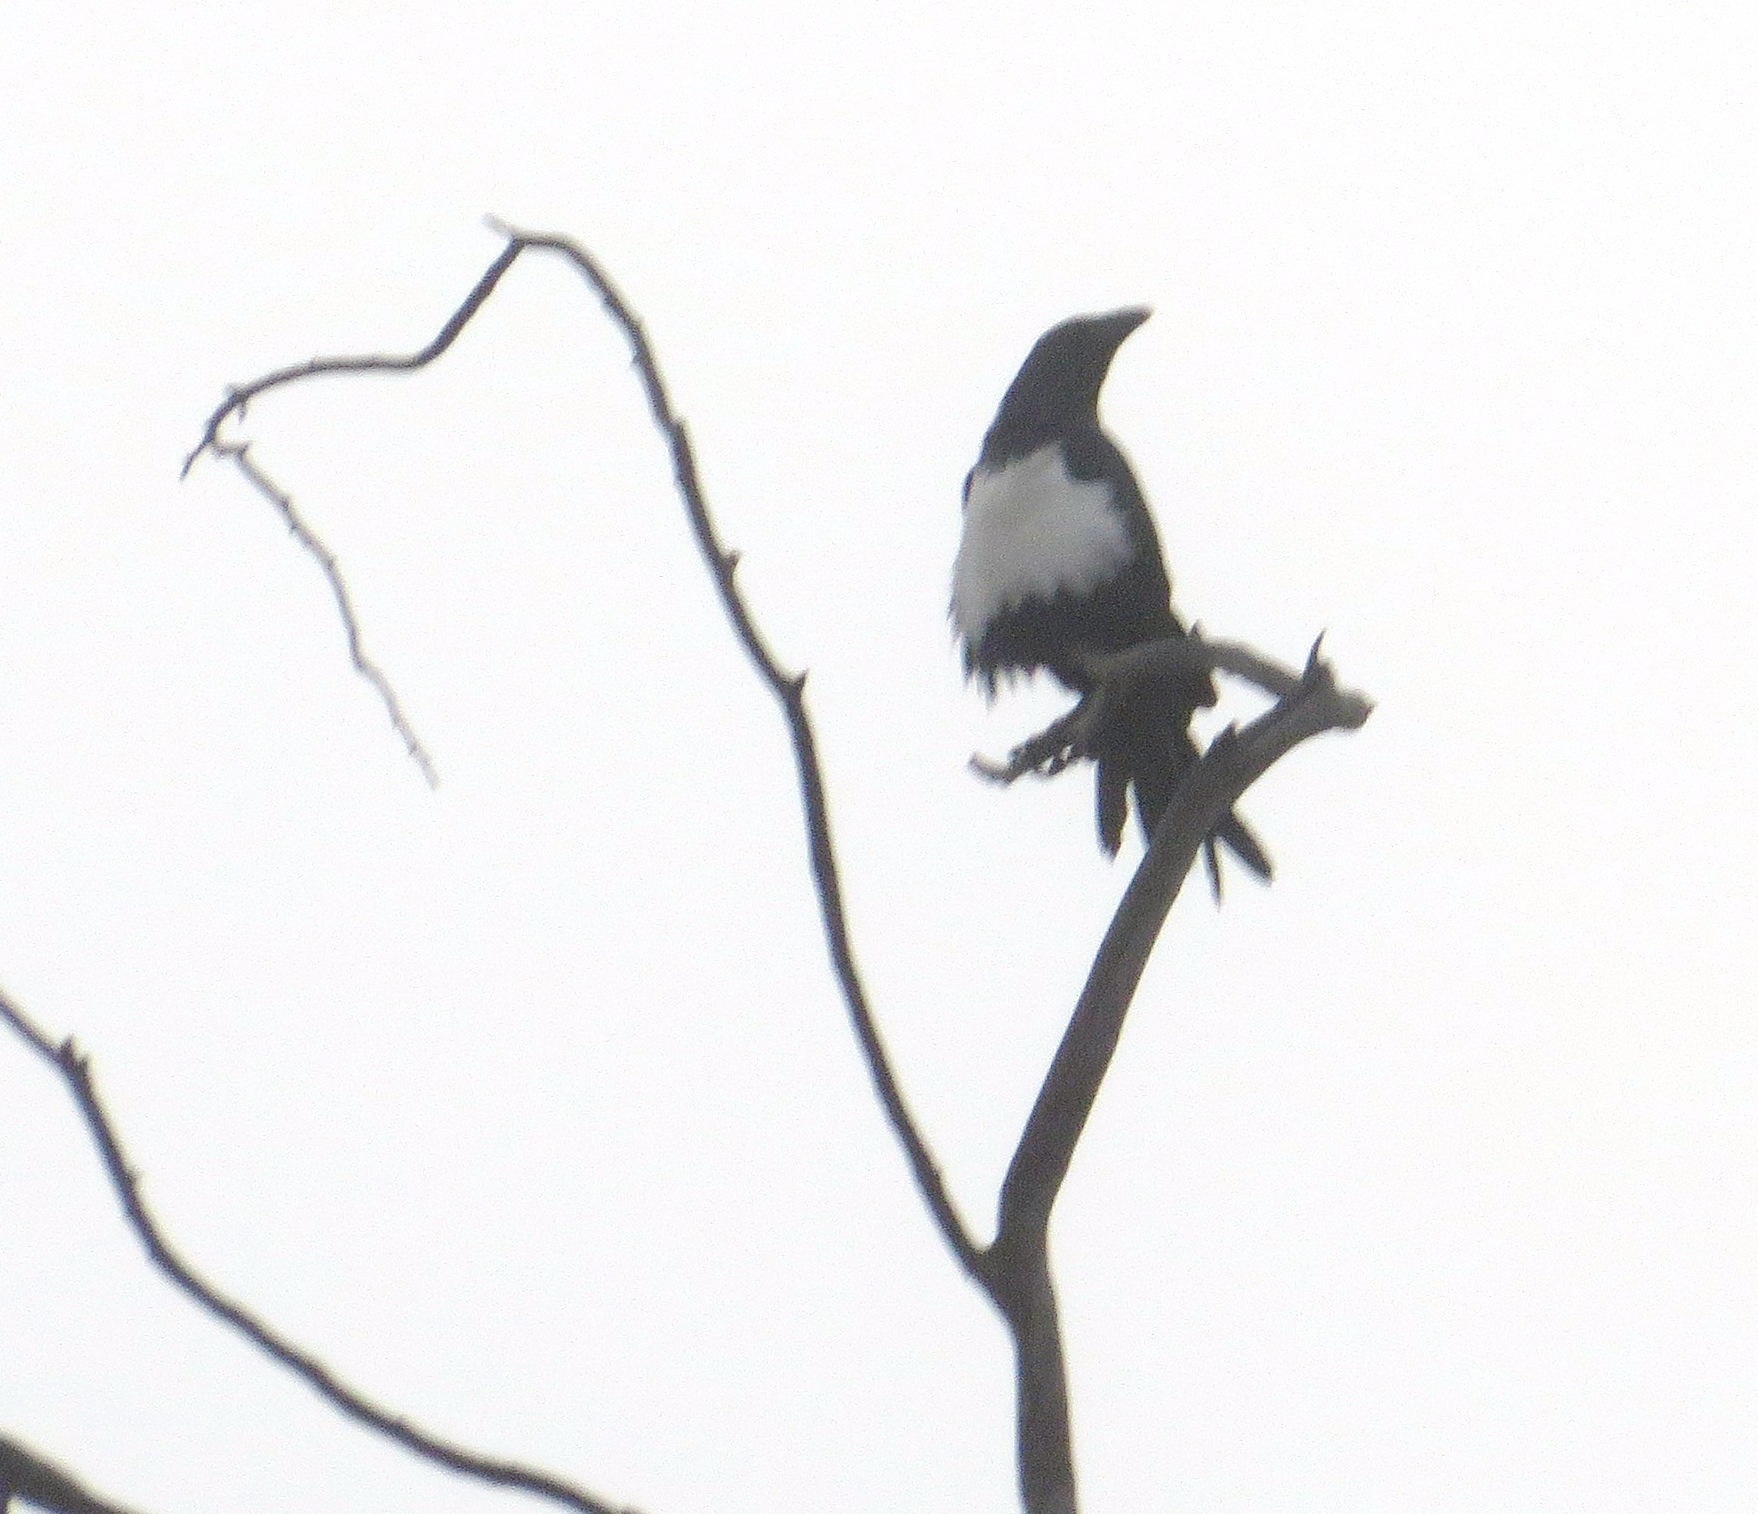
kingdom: Animalia
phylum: Chordata
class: Aves
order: Passeriformes
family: Corvidae
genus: Corvus
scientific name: Corvus albus
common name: Pied crow
